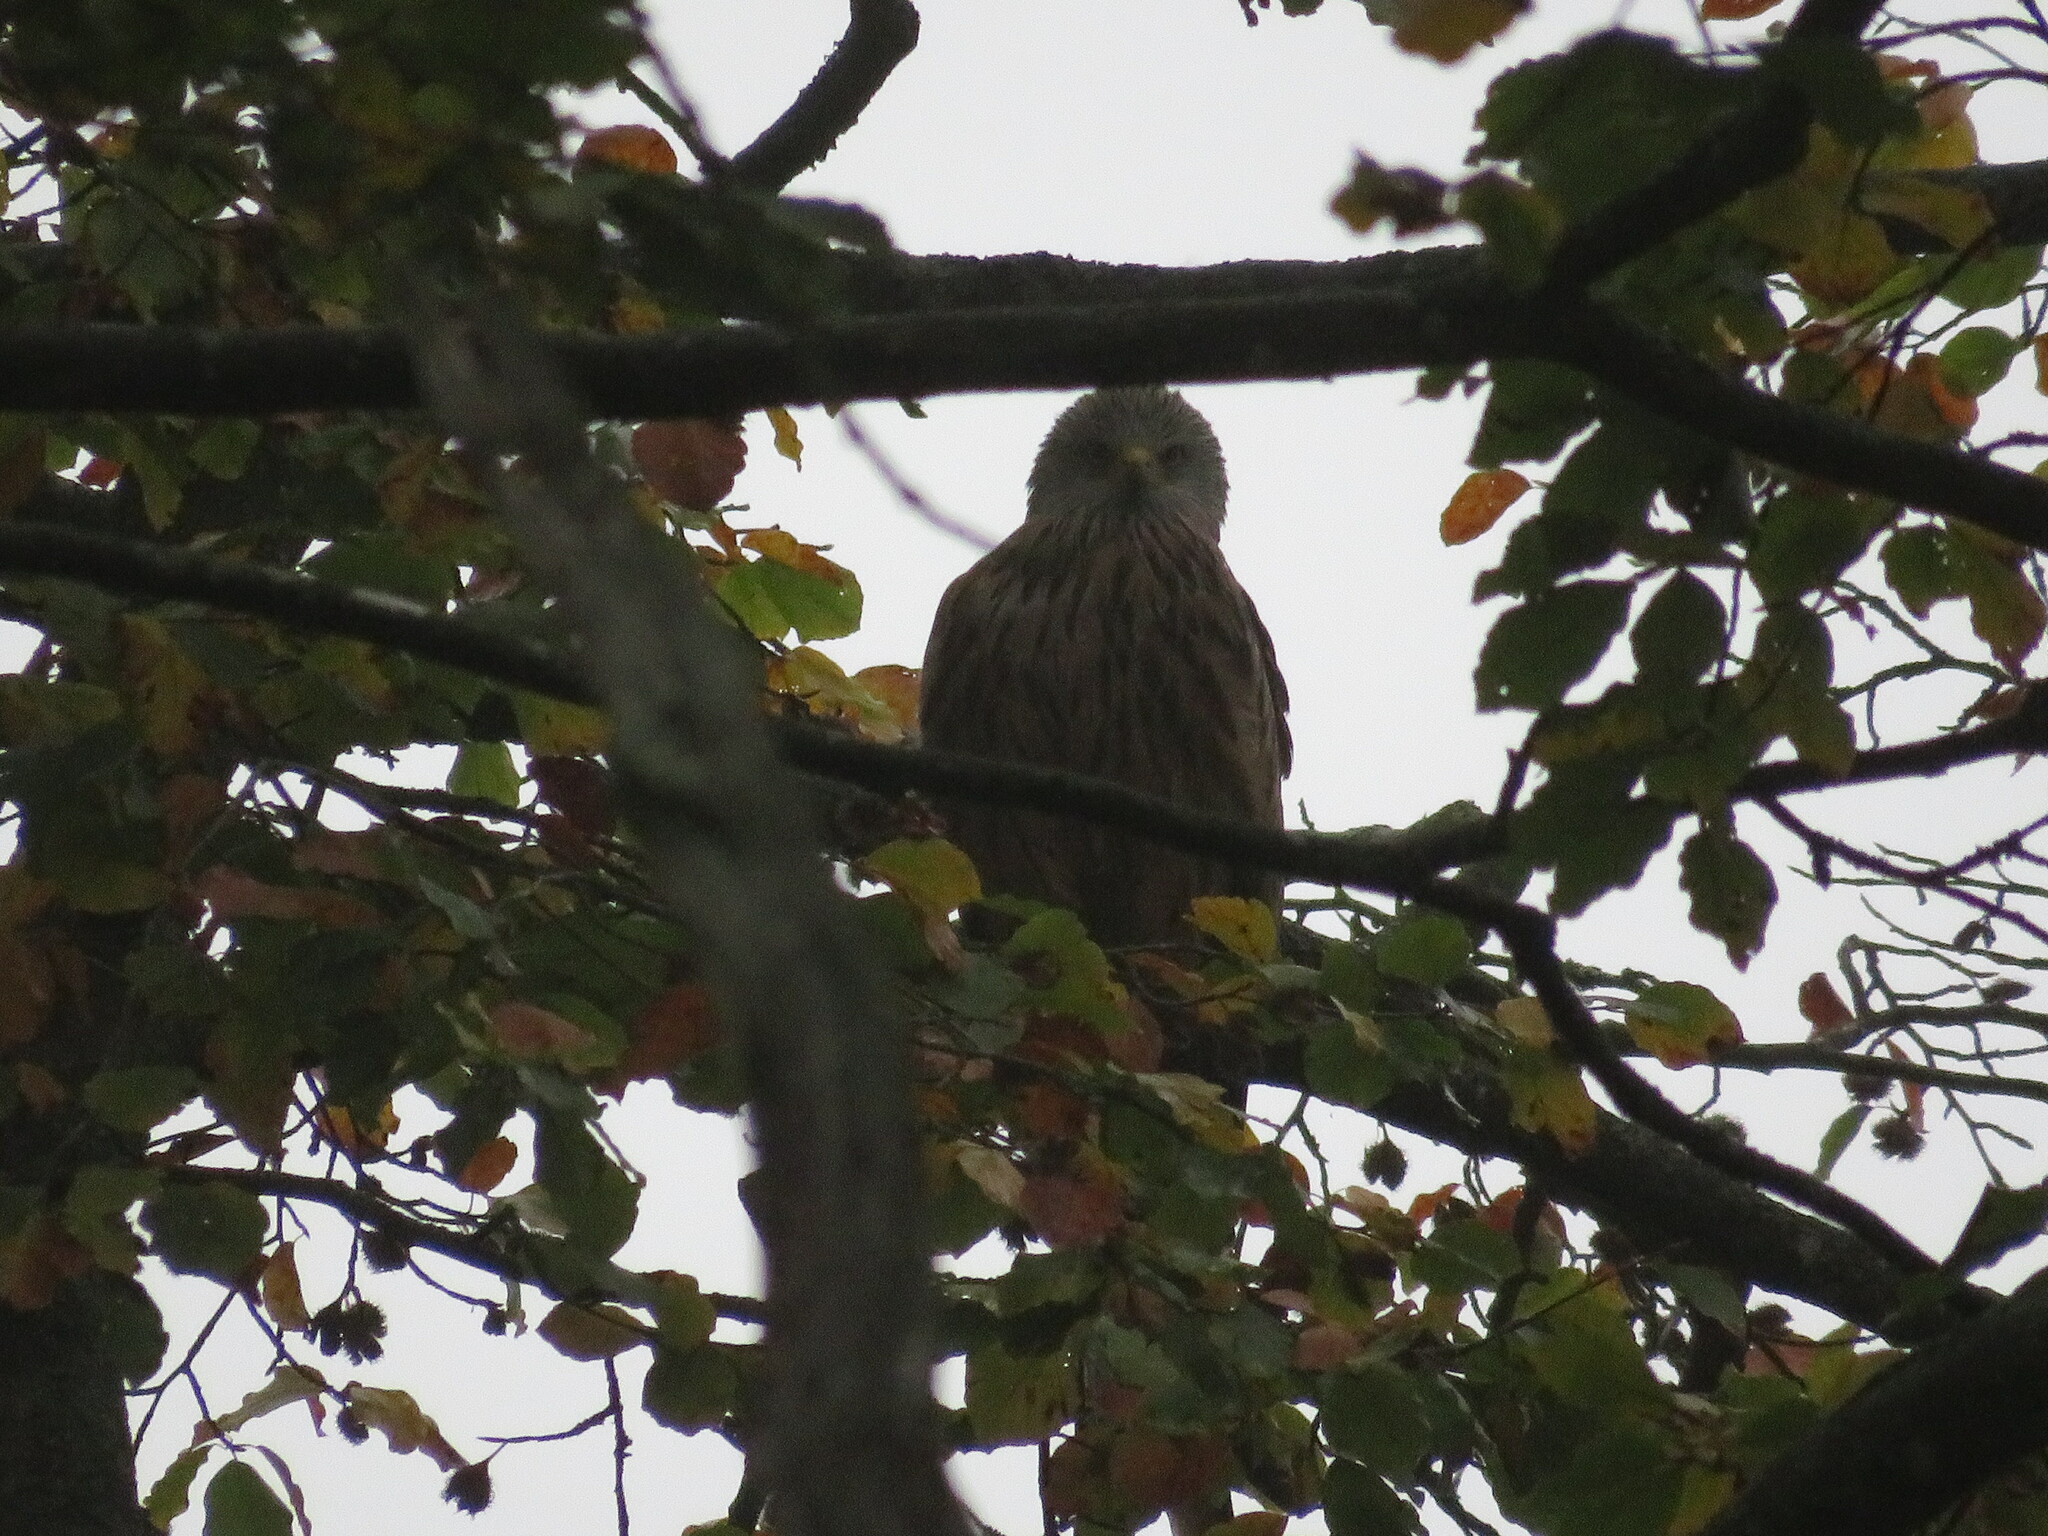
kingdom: Animalia
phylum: Chordata
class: Aves
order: Accipitriformes
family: Accipitridae
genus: Milvus
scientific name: Milvus milvus
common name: Red kite
